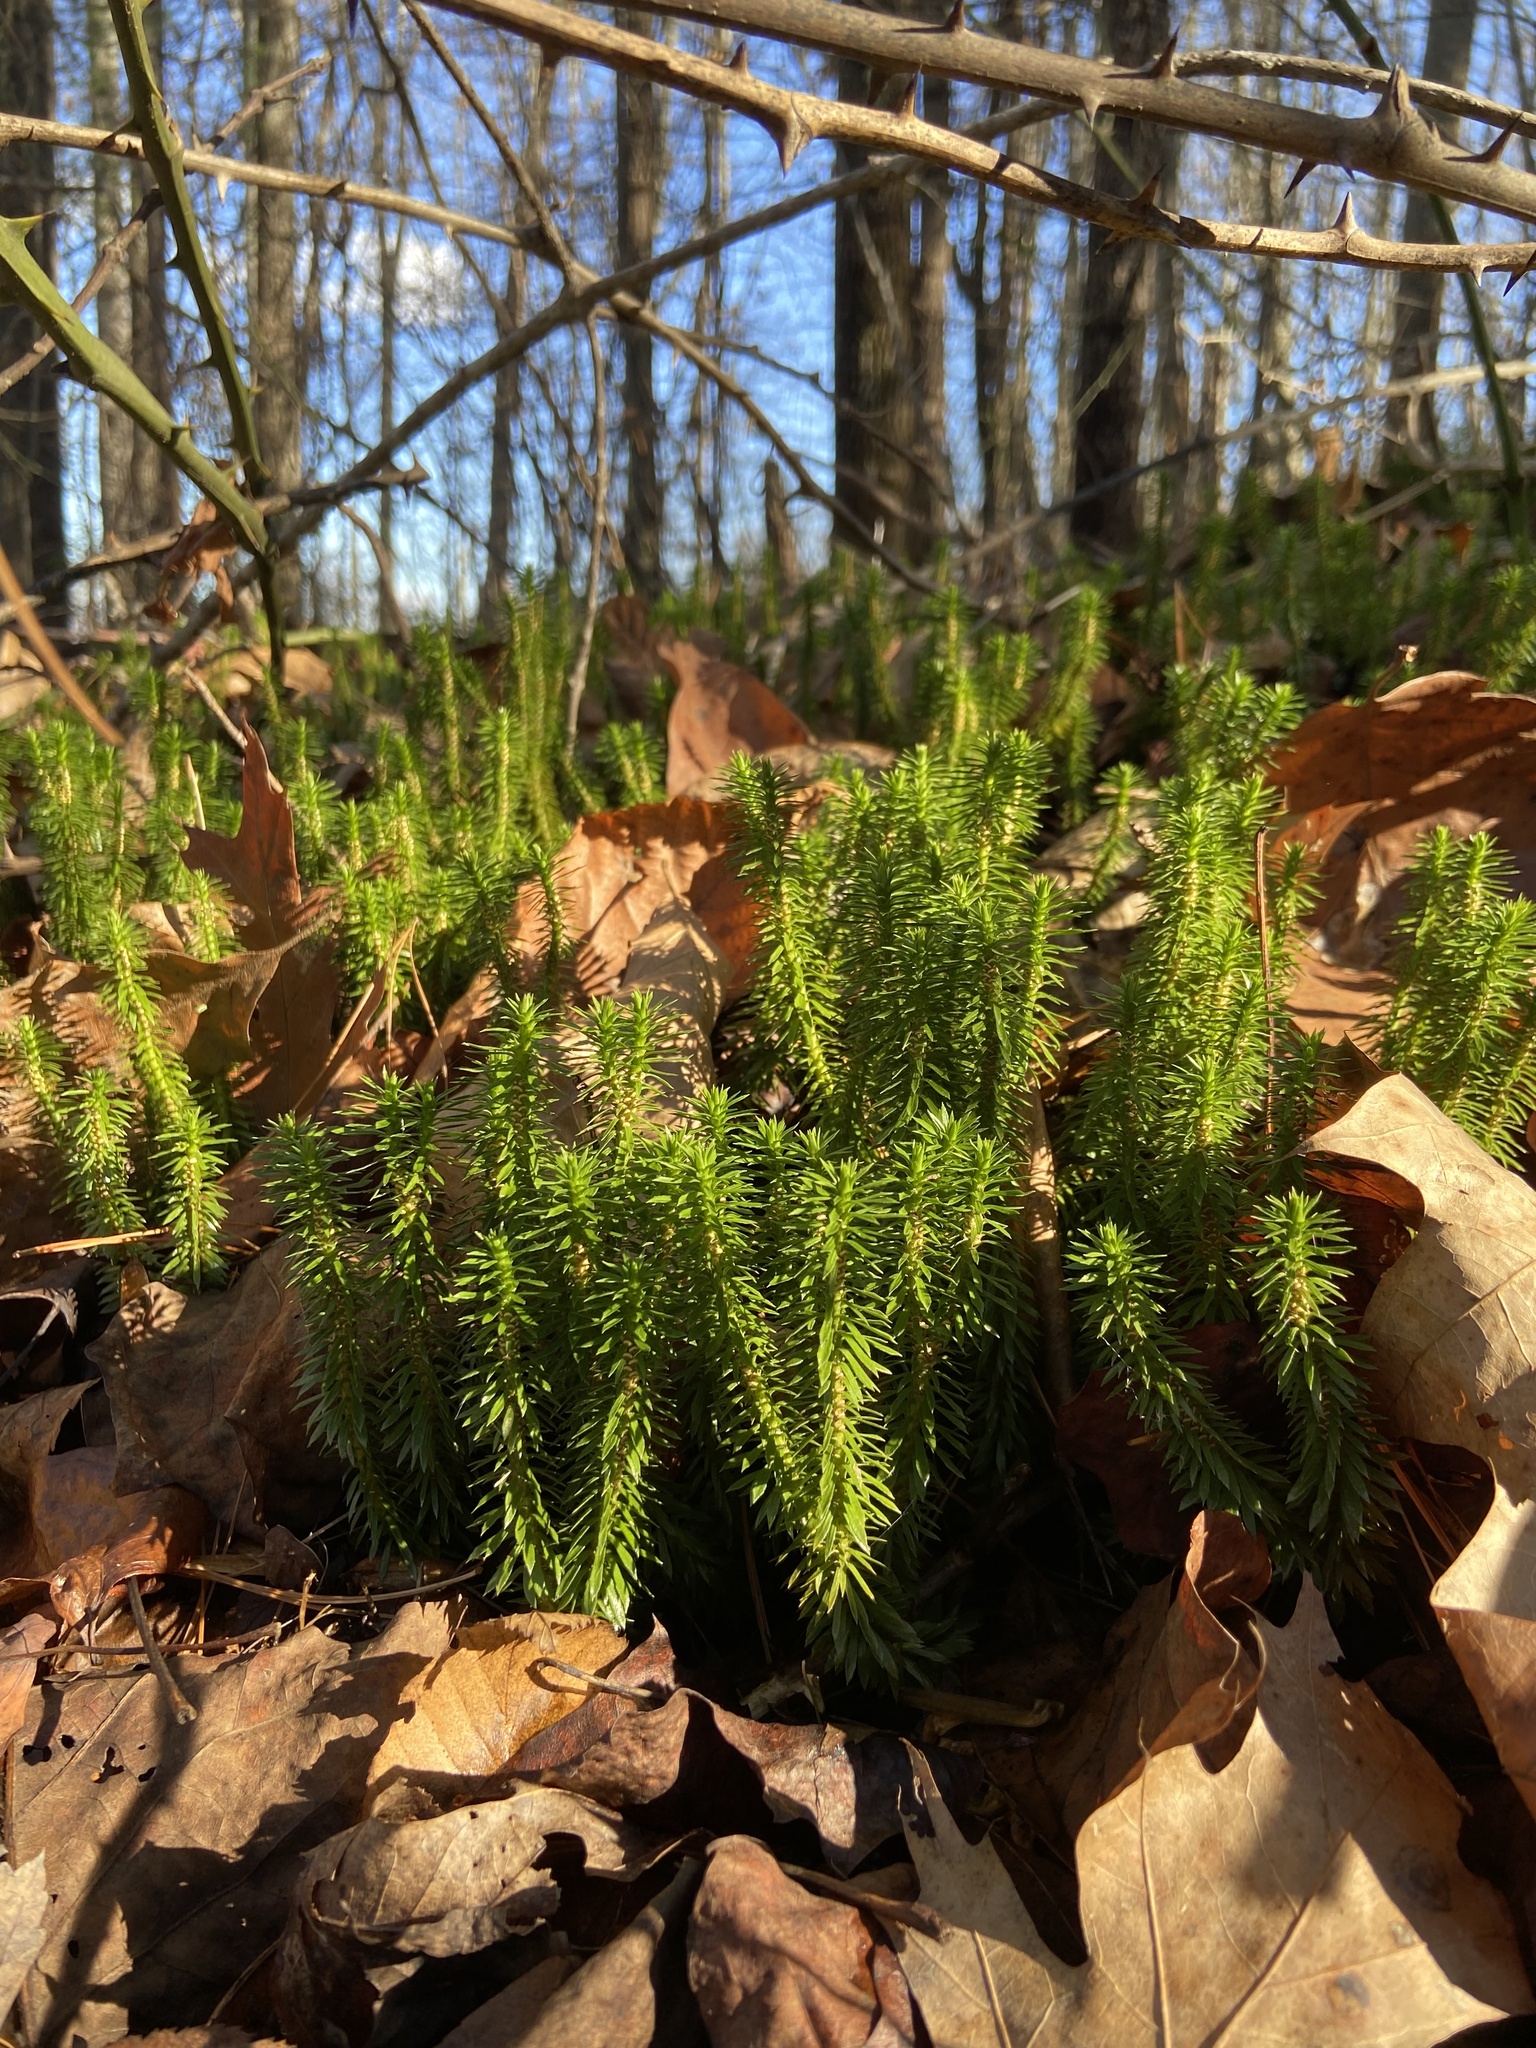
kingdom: Plantae
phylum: Tracheophyta
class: Lycopodiopsida
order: Lycopodiales
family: Lycopodiaceae
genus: Huperzia
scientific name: Huperzia lucidula
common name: Shining clubmoss
